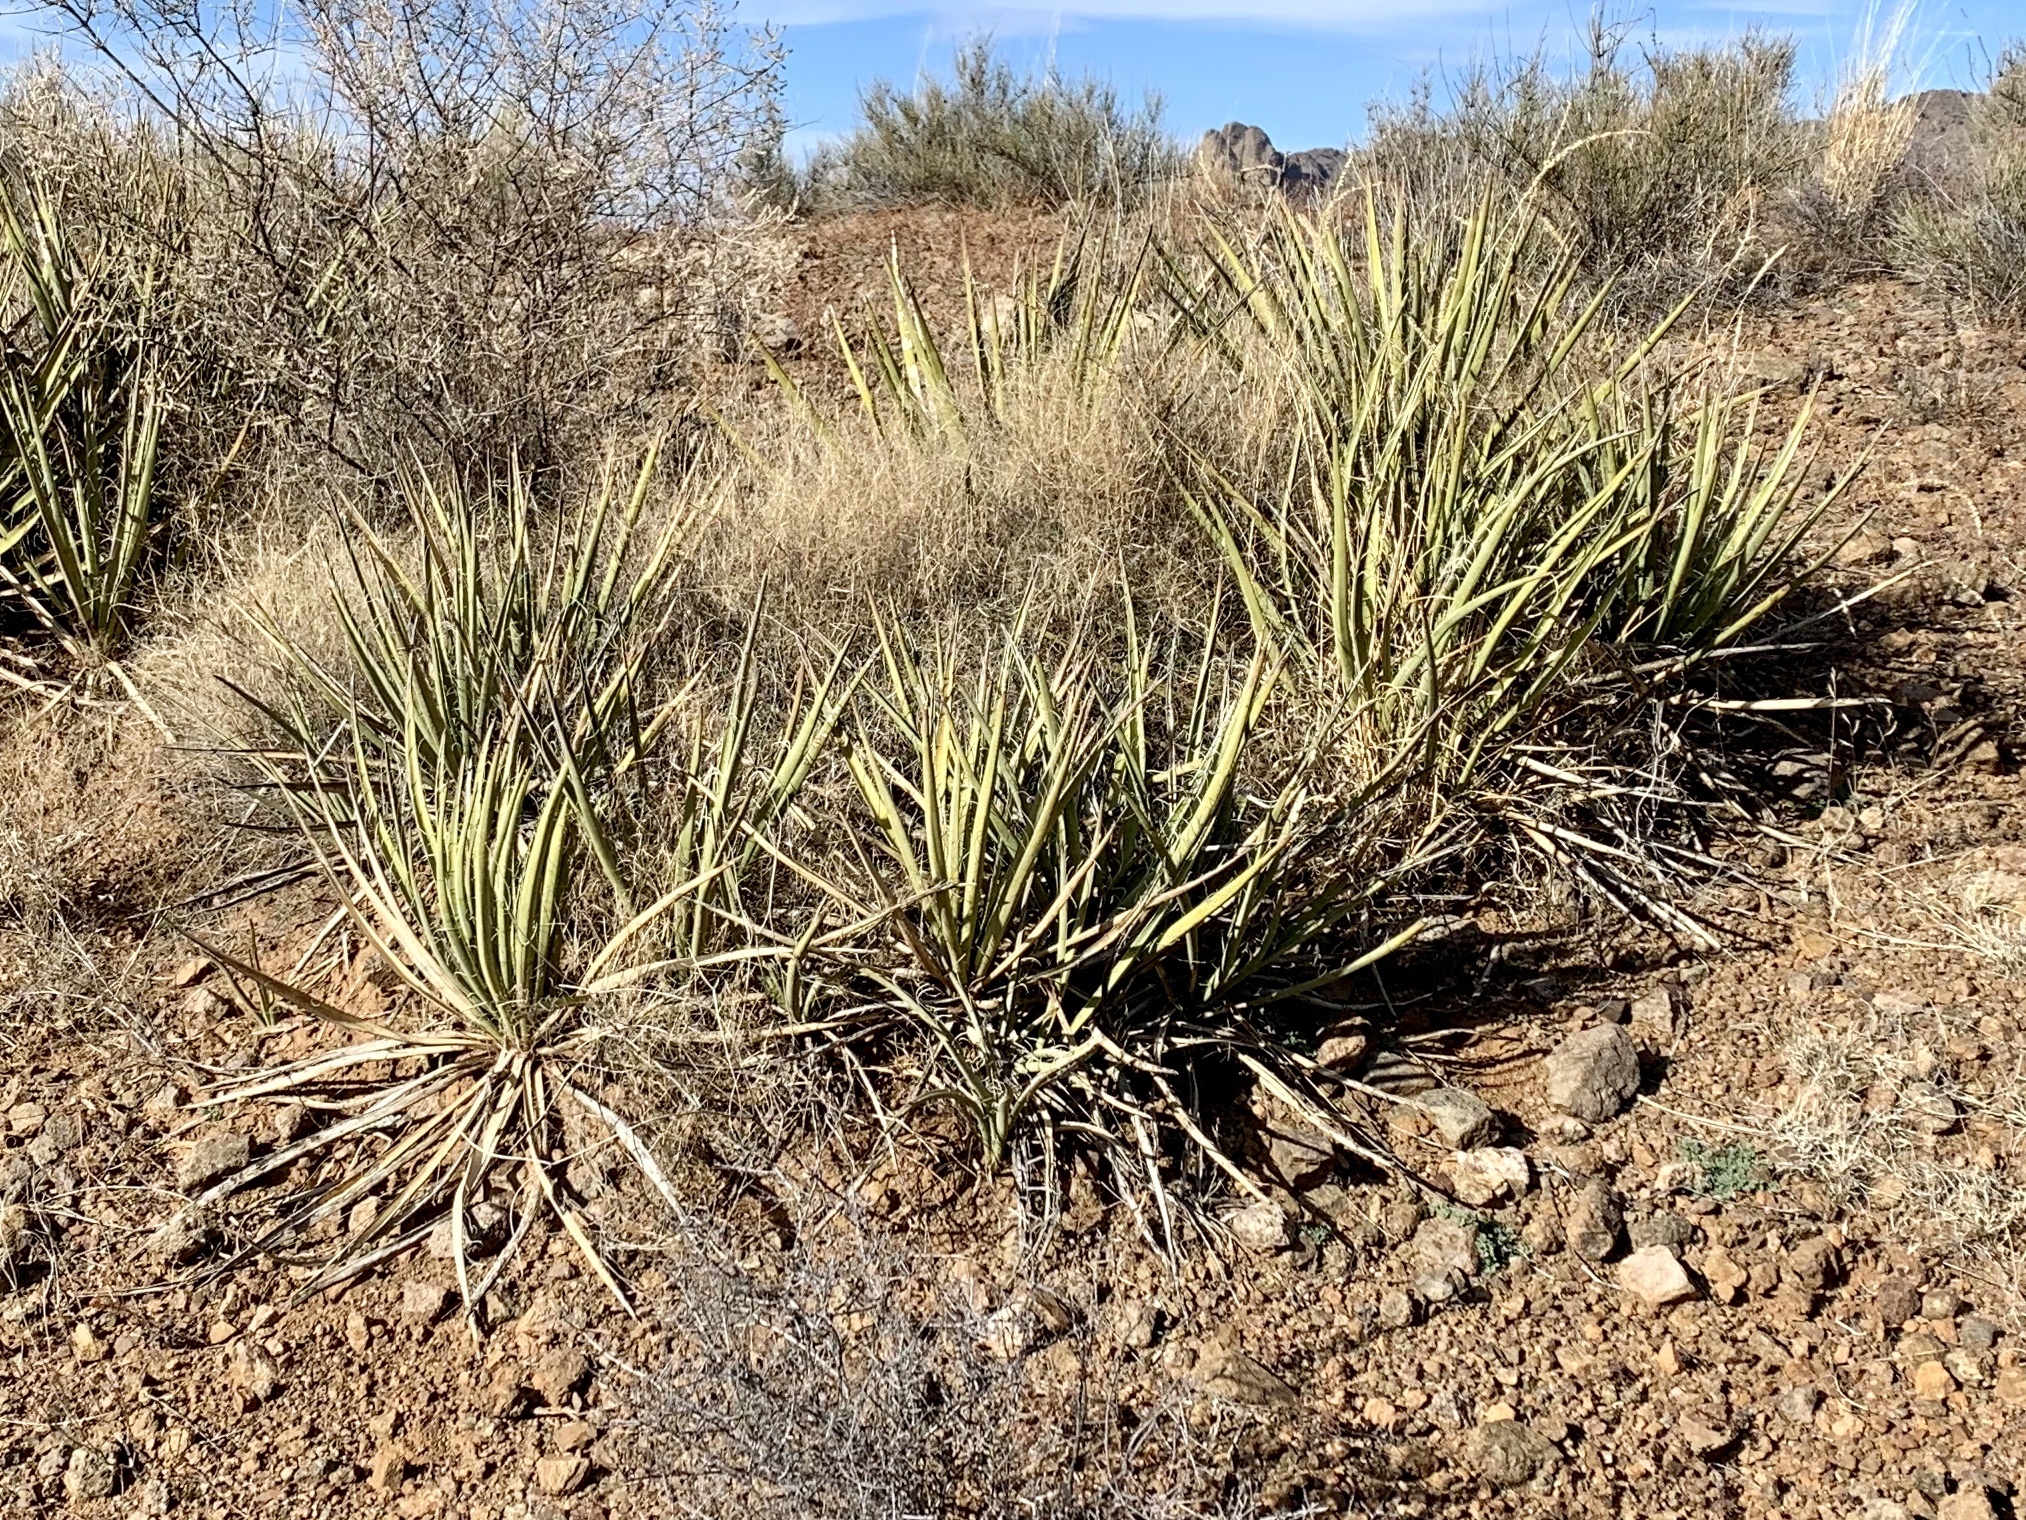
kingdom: Plantae
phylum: Tracheophyta
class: Liliopsida
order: Asparagales
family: Asparagaceae
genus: Yucca
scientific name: Yucca baccata
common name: Banana yucca
